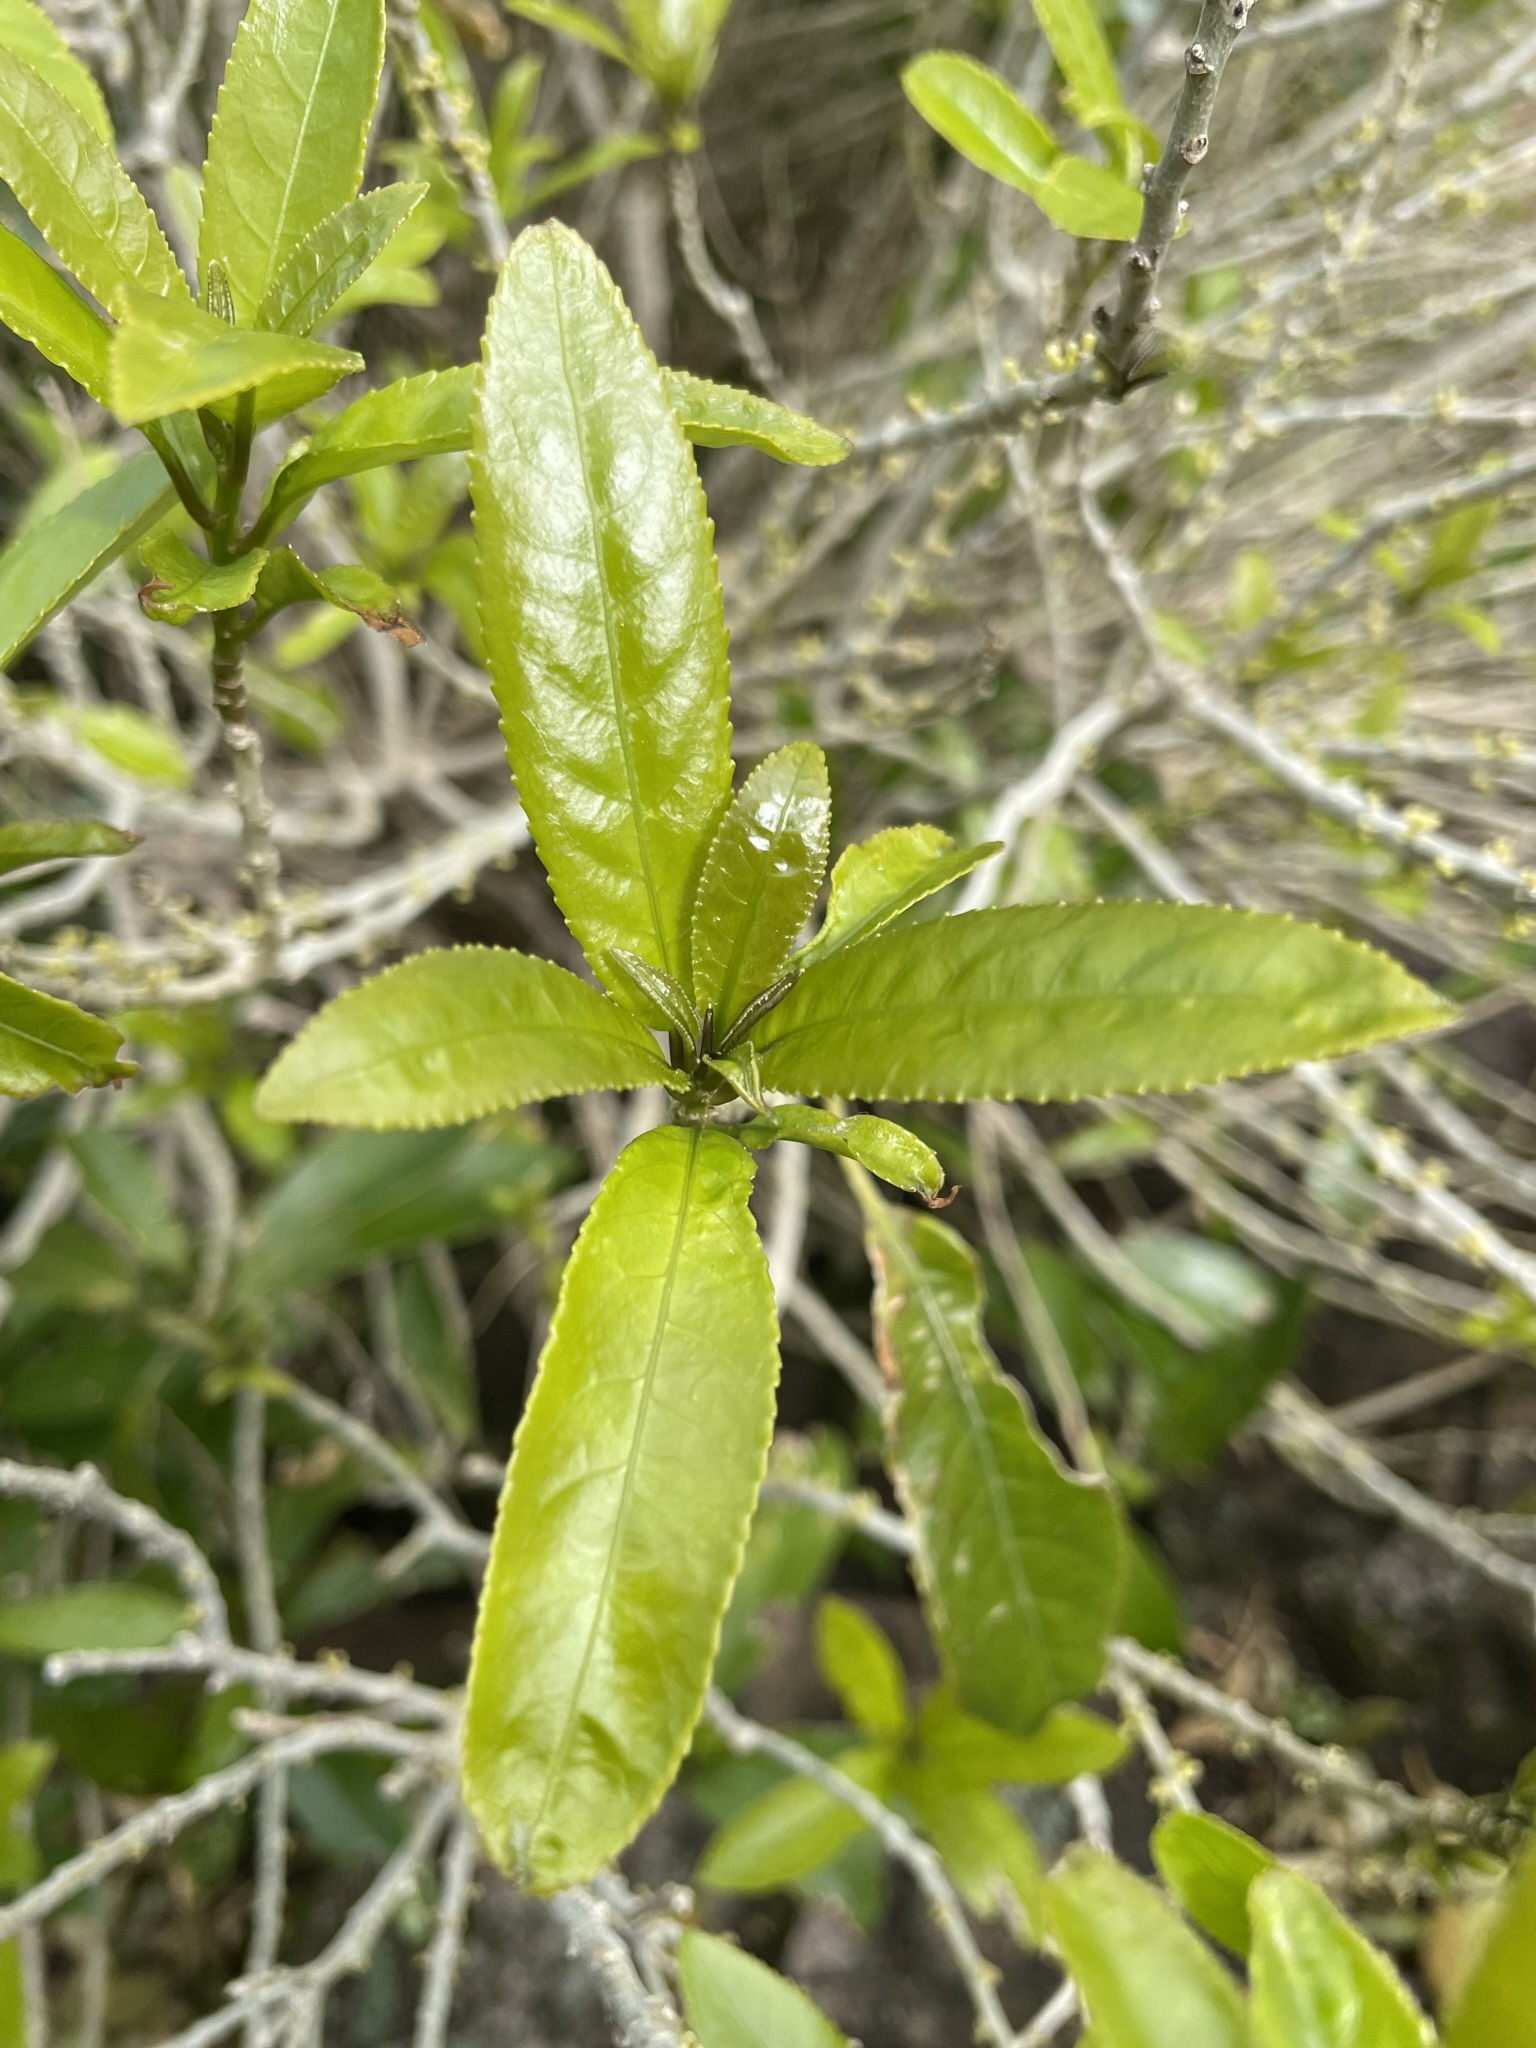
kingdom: Plantae
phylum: Tracheophyta
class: Magnoliopsida
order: Malpighiales
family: Violaceae
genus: Melicytus
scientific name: Melicytus ramiflorus
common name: Mahoe
